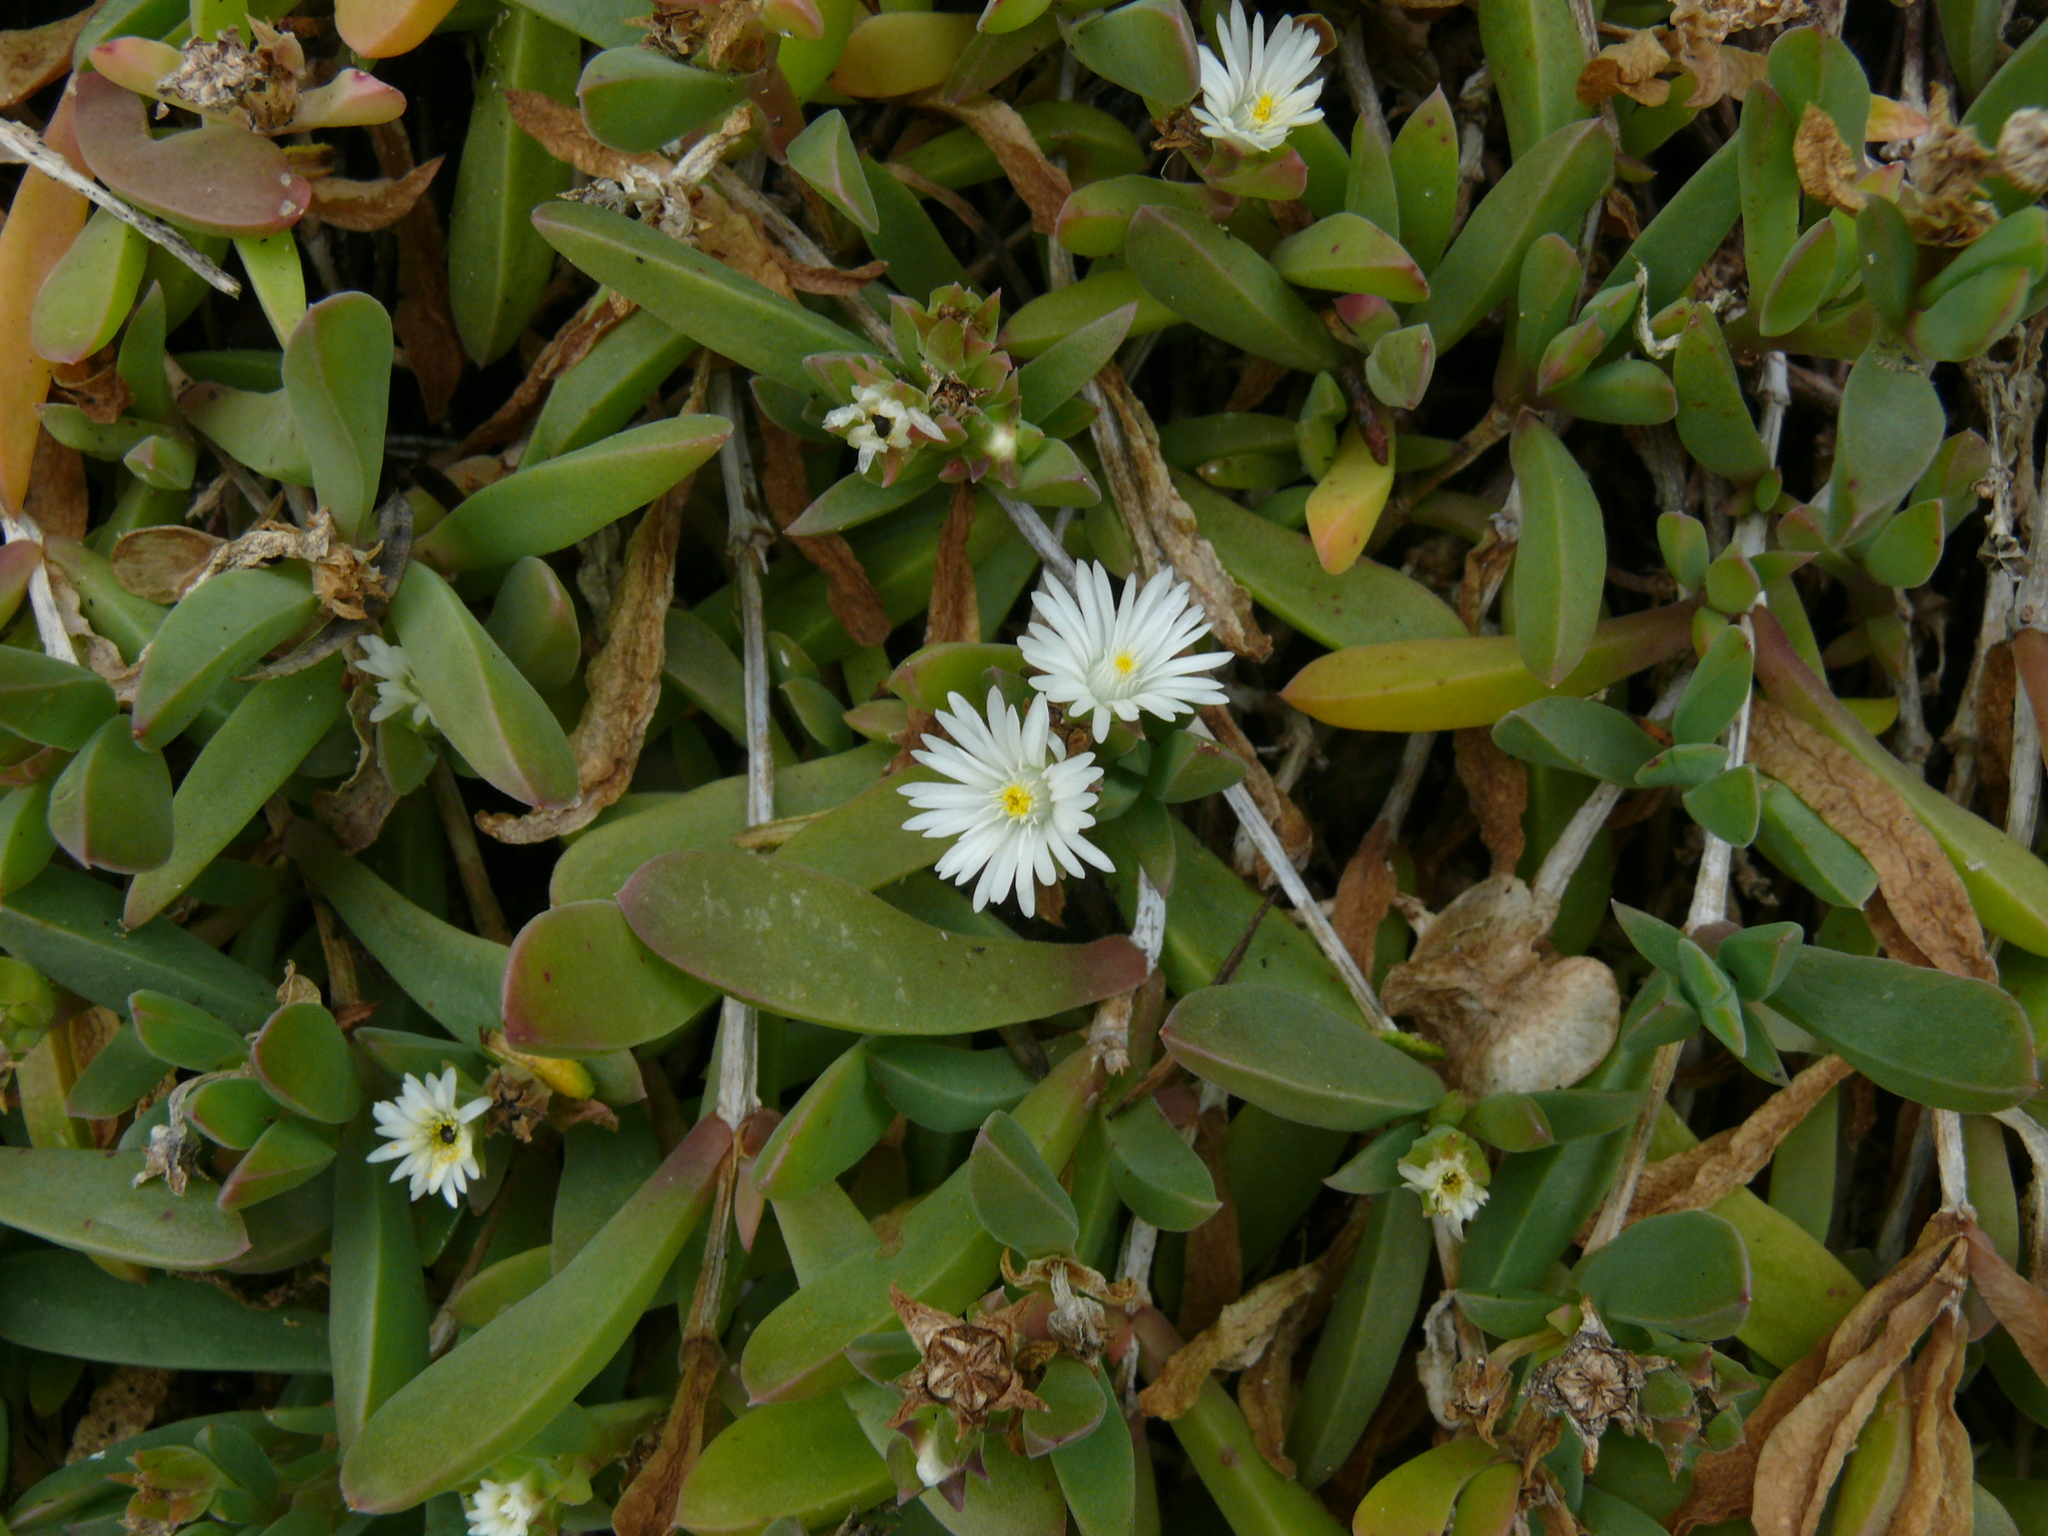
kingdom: Plantae
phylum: Tracheophyta
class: Magnoliopsida
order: Caryophyllales
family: Aizoaceae
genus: Delosperma
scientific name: Delosperma patersoniae
